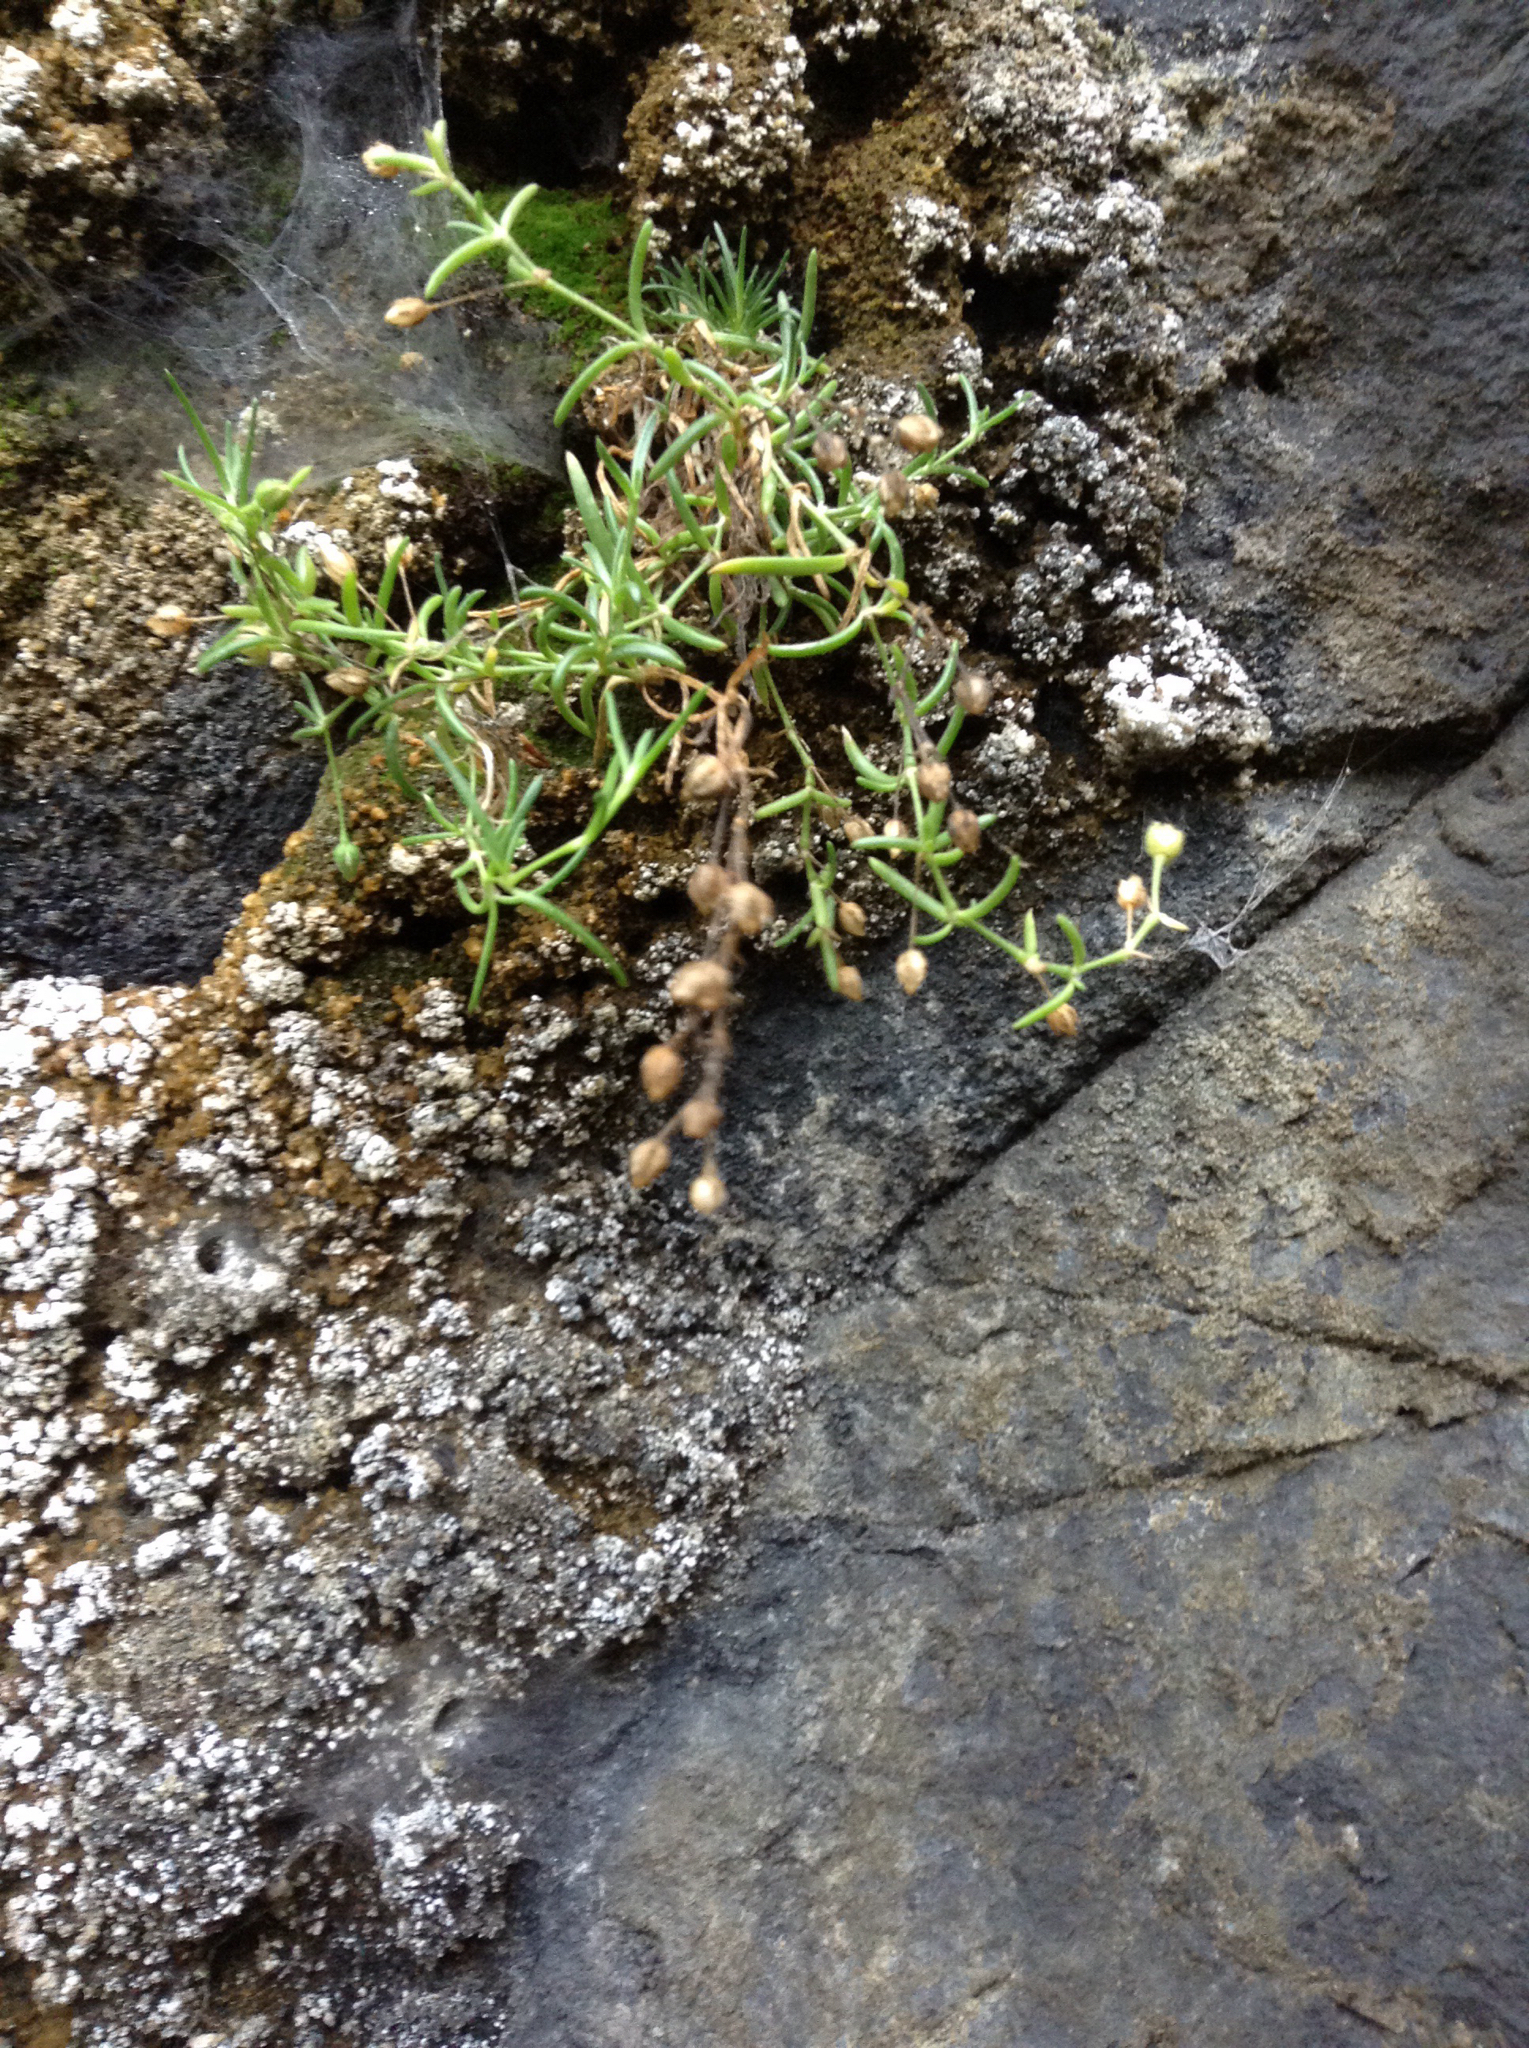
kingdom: Plantae
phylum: Tracheophyta
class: Magnoliopsida
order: Caryophyllales
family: Caryophyllaceae
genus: Spergularia
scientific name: Spergularia tasmanica
